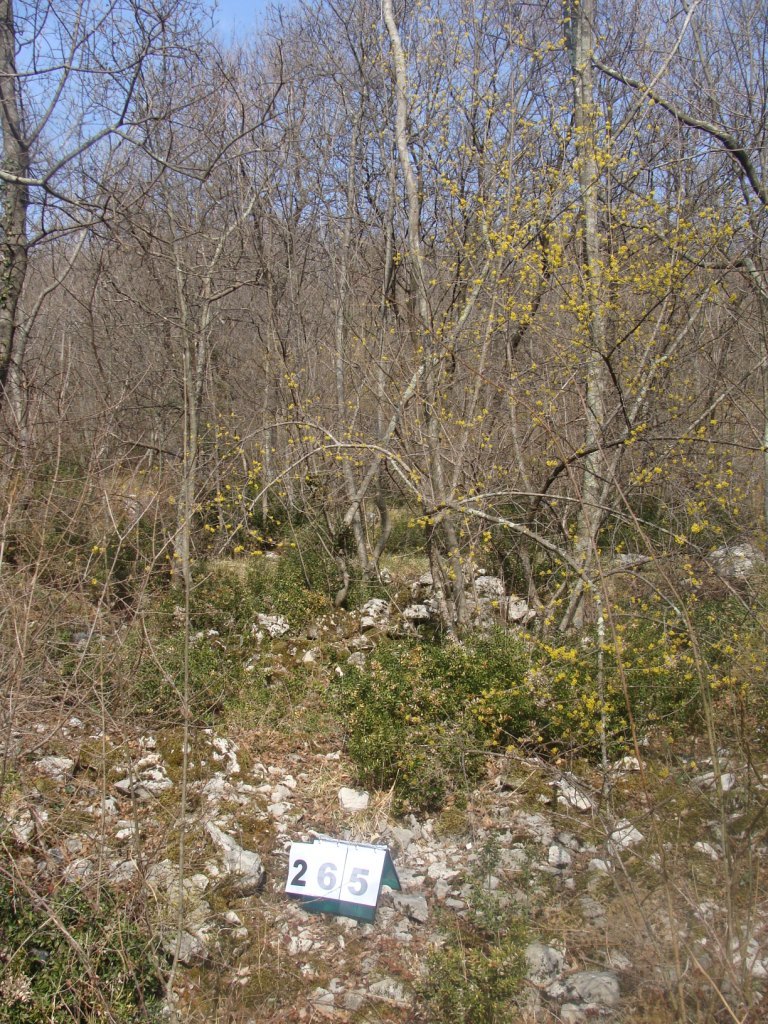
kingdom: Plantae
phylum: Tracheophyta
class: Magnoliopsida
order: Cornales
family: Cornaceae
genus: Cornus
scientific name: Cornus mas
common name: Cornelian-cherry
